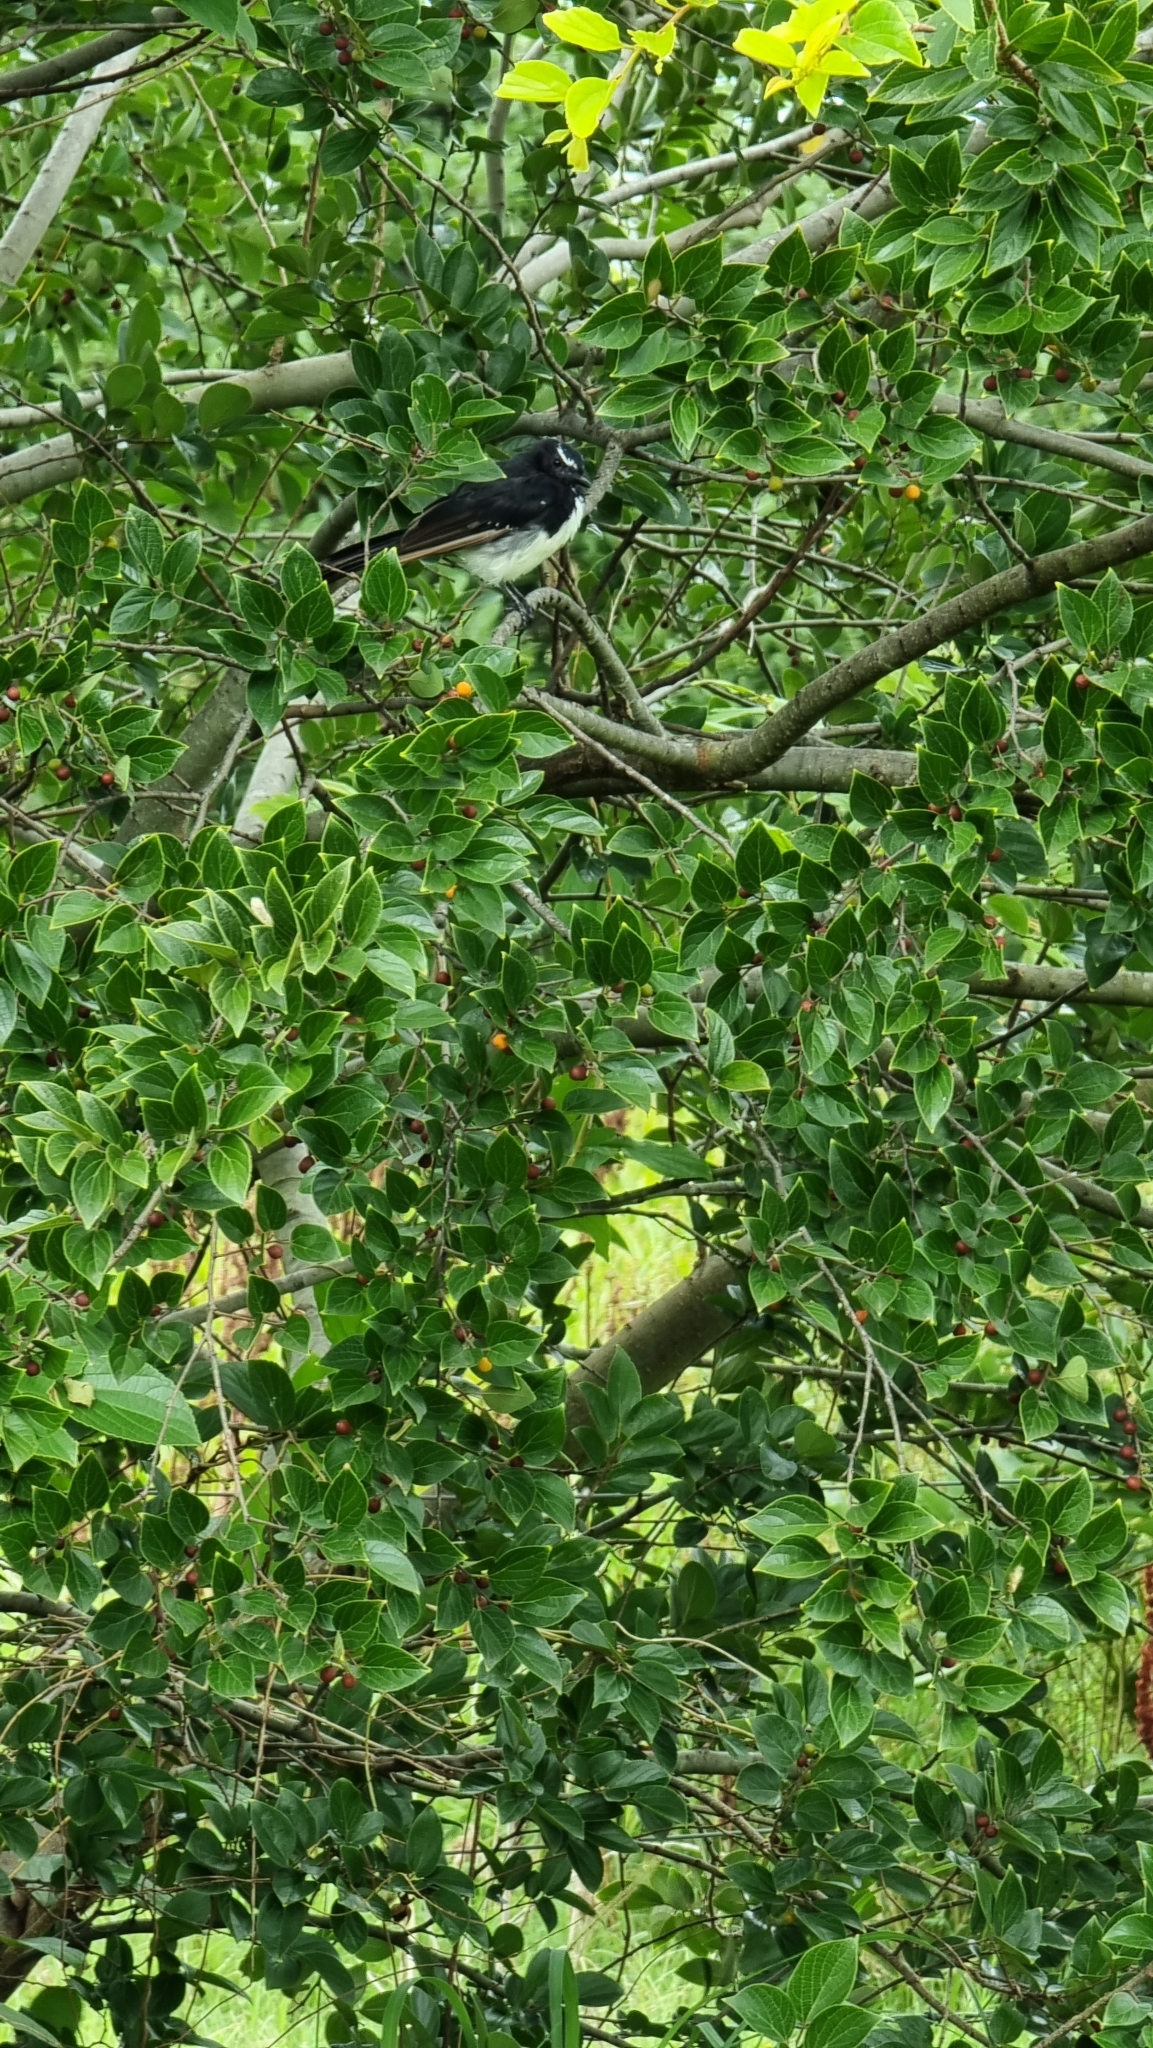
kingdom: Animalia
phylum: Chordata
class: Aves
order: Passeriformes
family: Rhipiduridae
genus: Rhipidura
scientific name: Rhipidura leucophrys
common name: Willie wagtail
